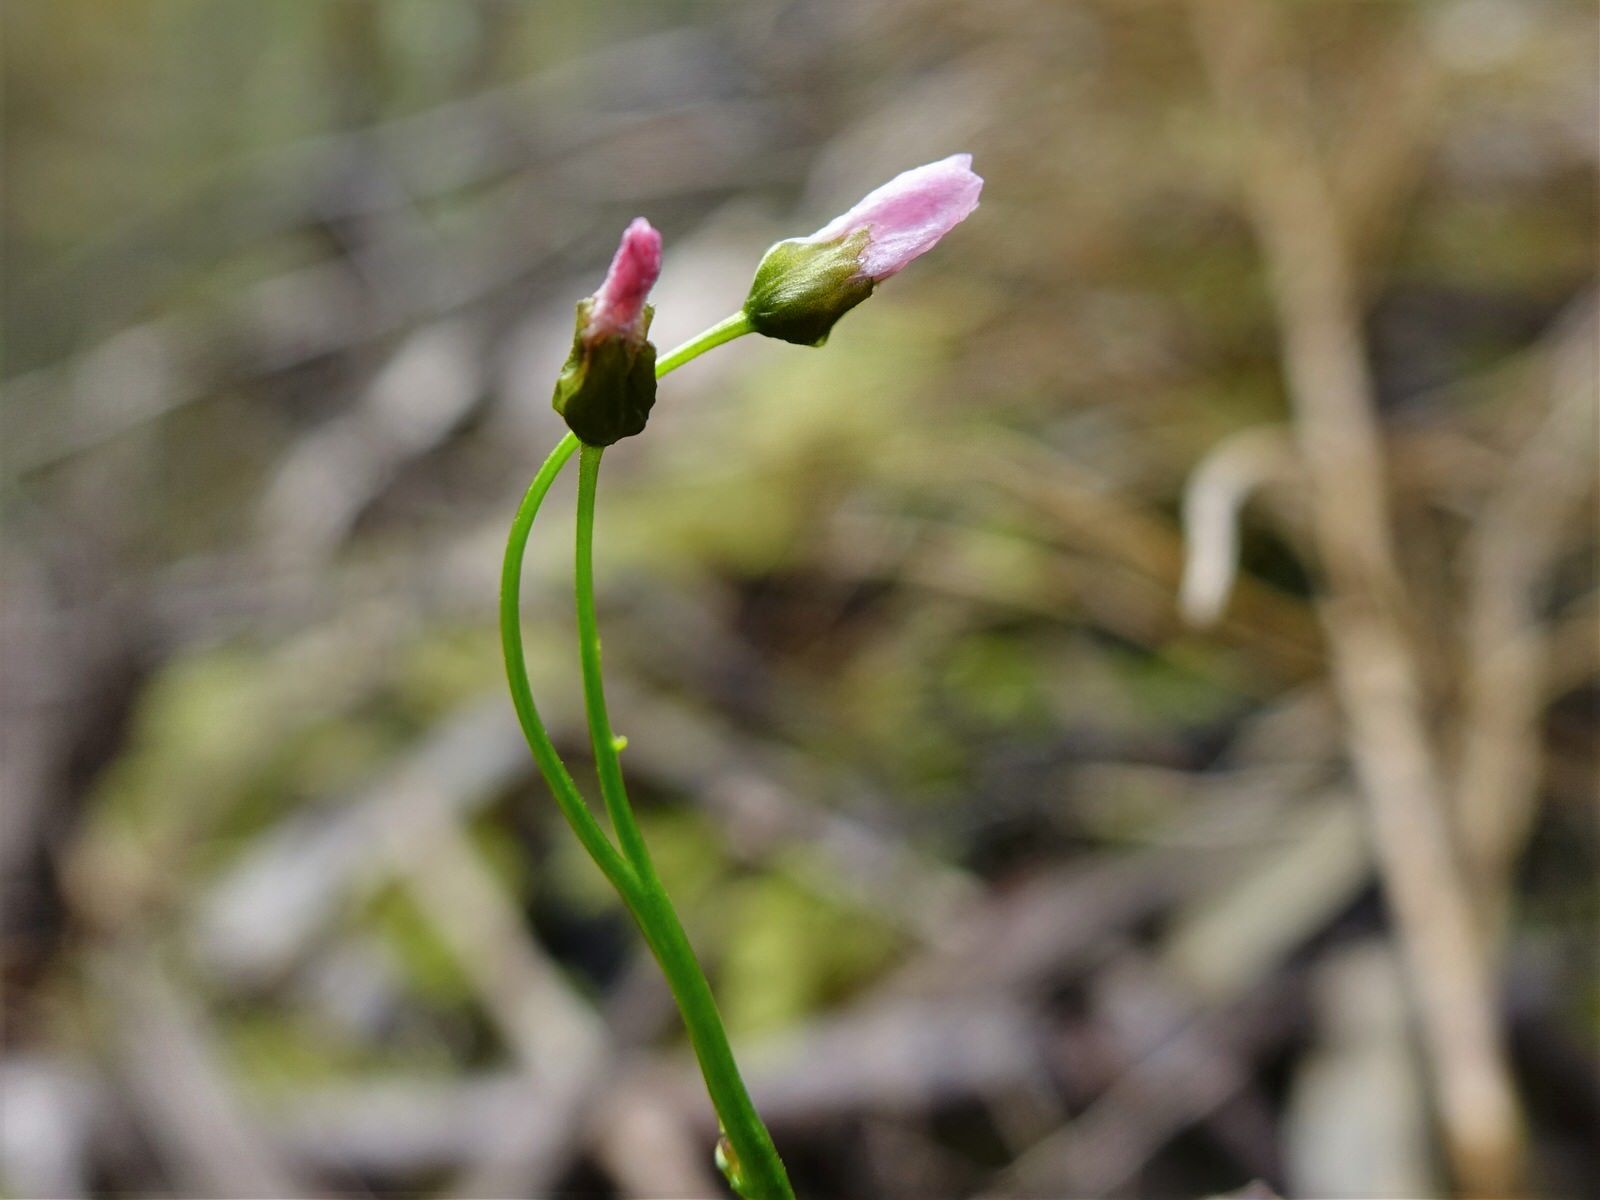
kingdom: Plantae
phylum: Tracheophyta
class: Magnoliopsida
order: Caryophyllales
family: Droseraceae
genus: Drosera
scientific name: Drosera peltata
